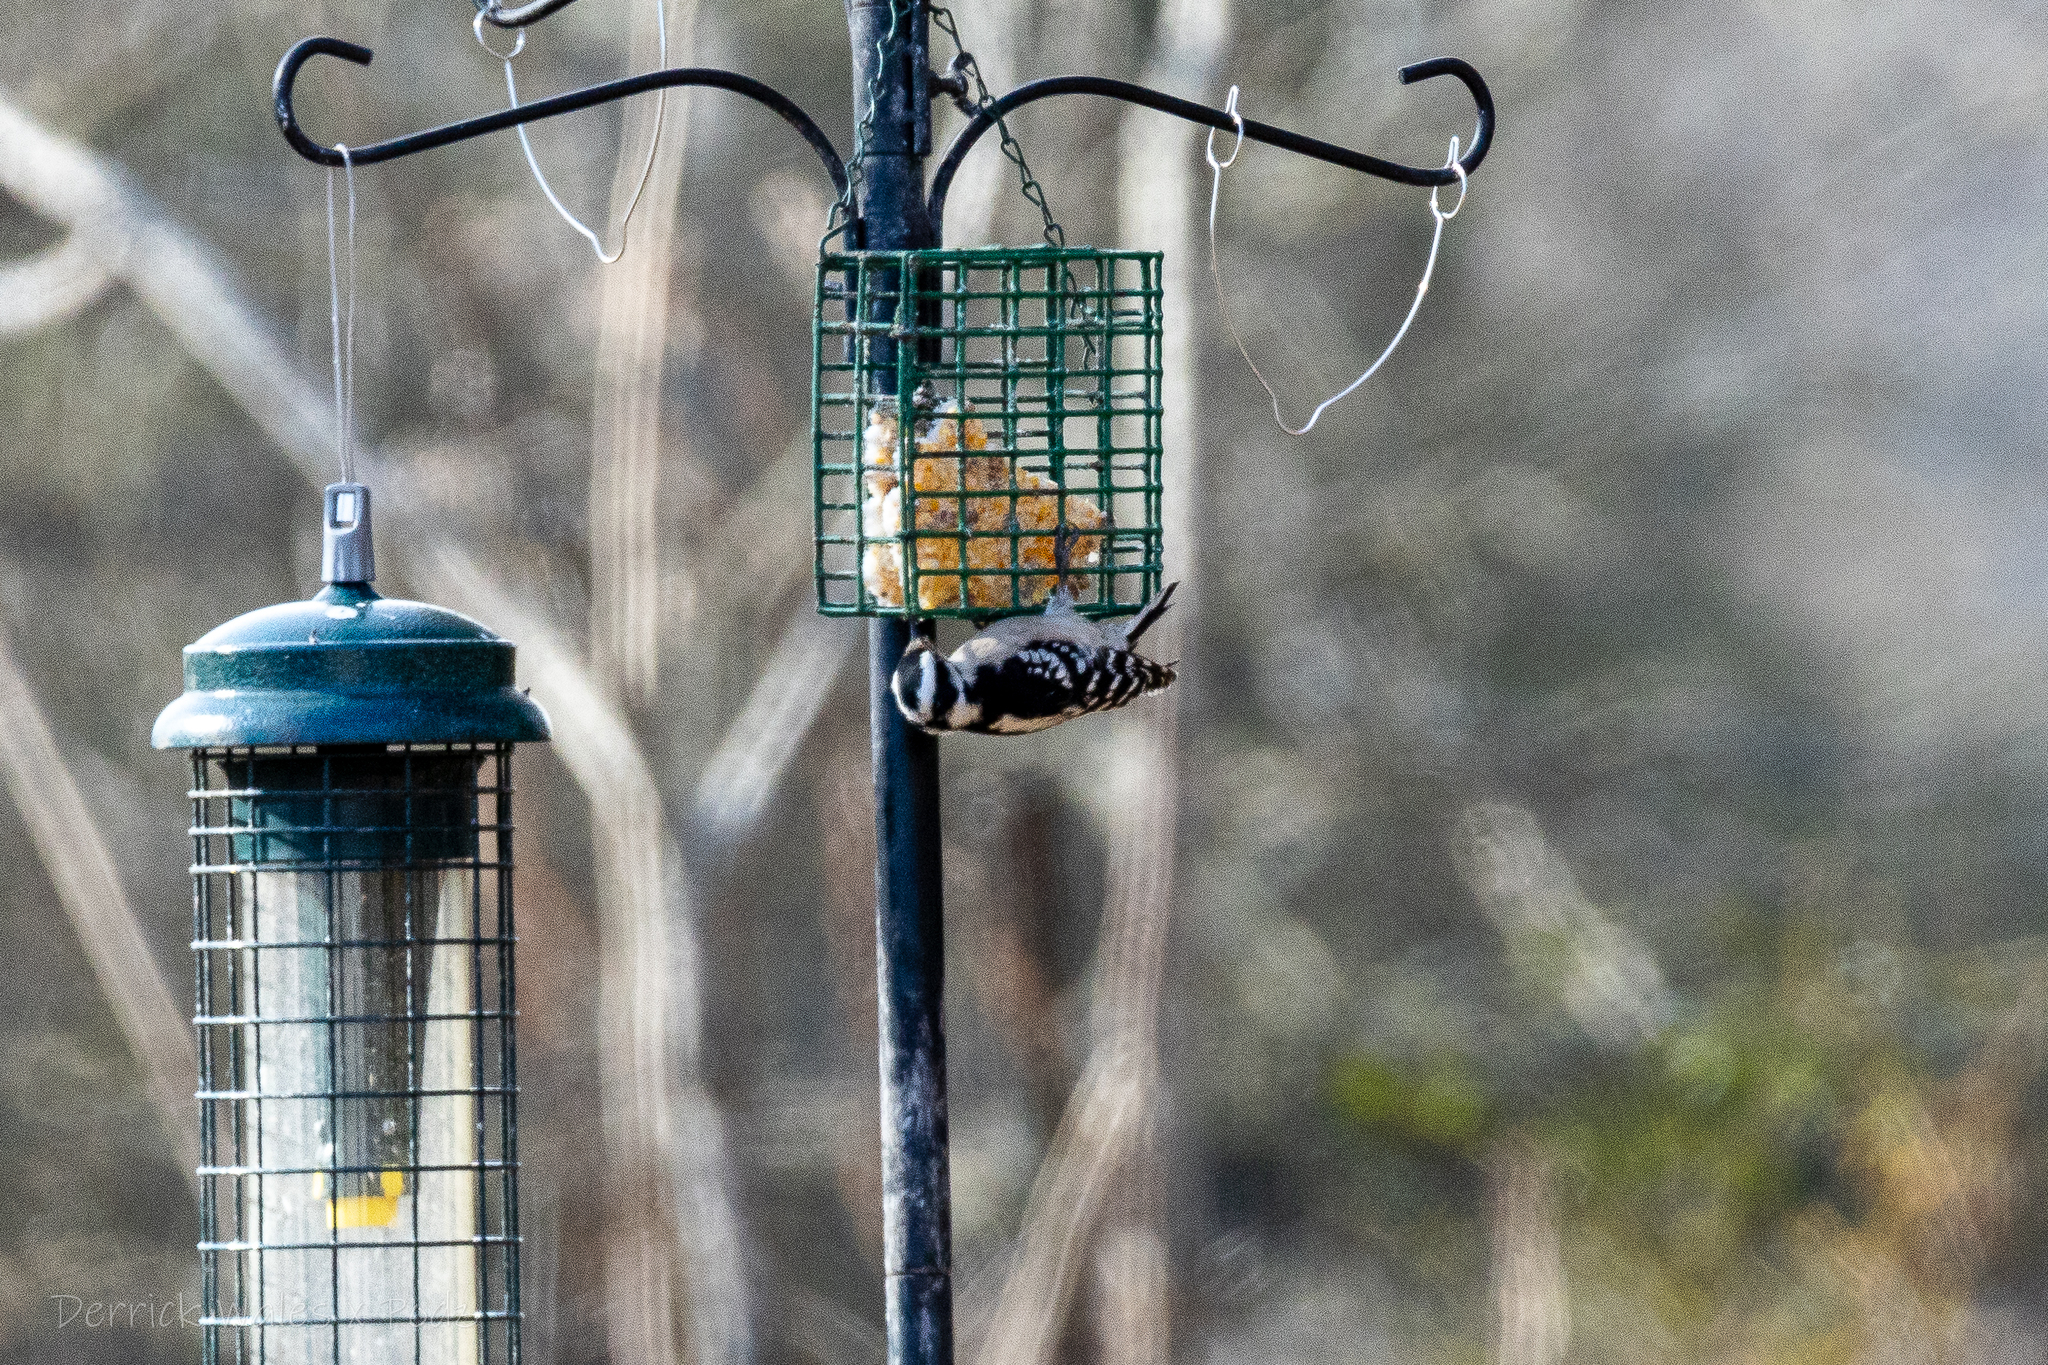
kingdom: Animalia
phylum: Chordata
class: Aves
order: Piciformes
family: Picidae
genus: Dryobates
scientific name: Dryobates pubescens
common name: Downy woodpecker
